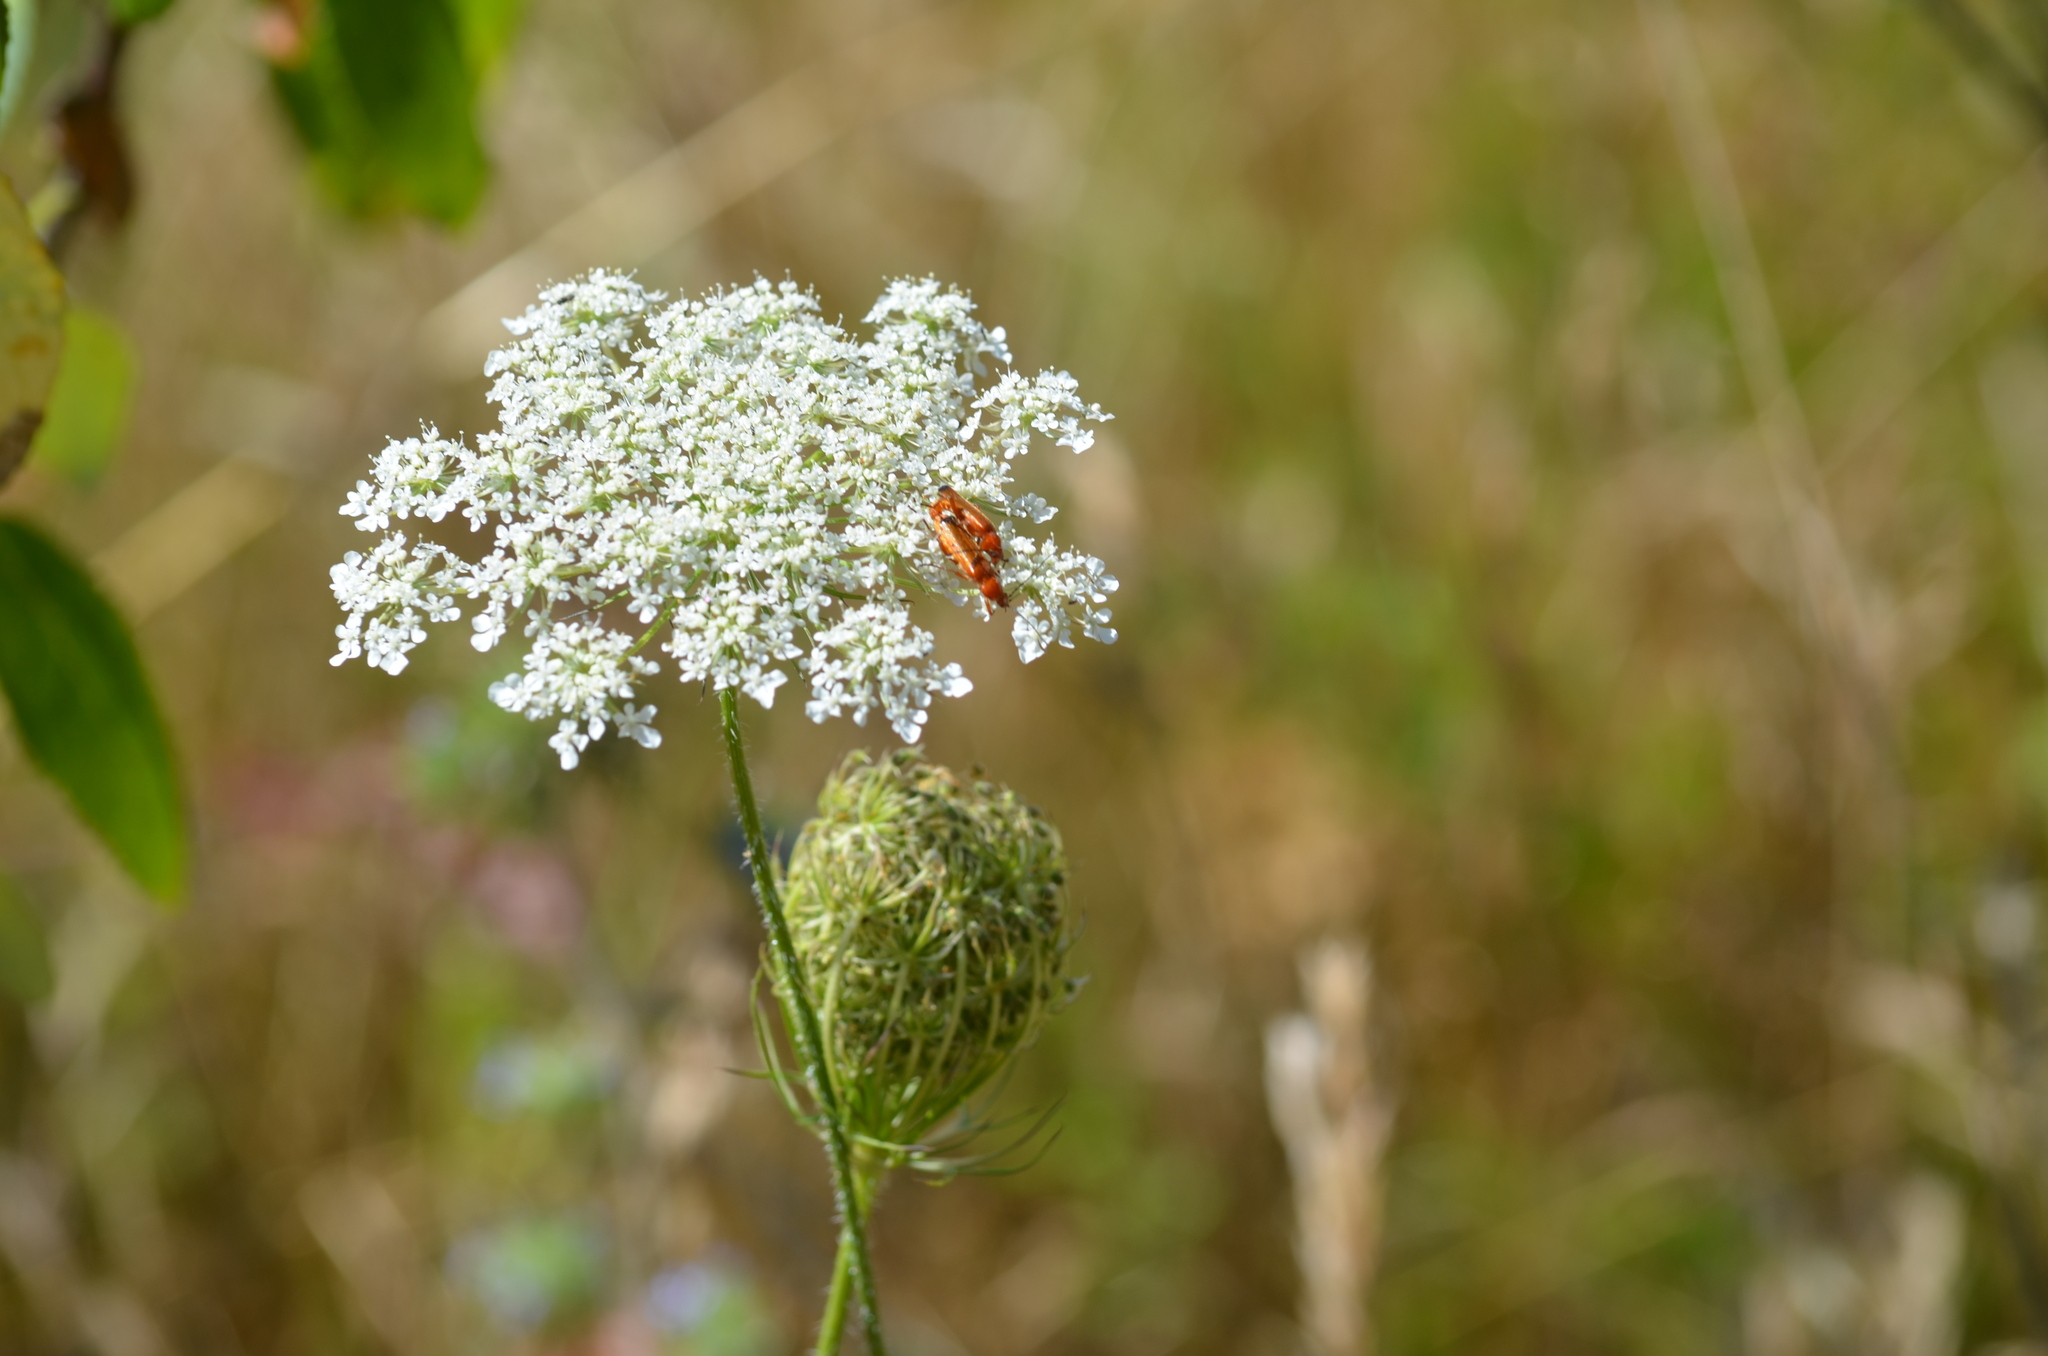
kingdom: Animalia
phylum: Arthropoda
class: Insecta
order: Coleoptera
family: Cantharidae
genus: Rhagonycha
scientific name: Rhagonycha fulva
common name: Common red soldier beetle
